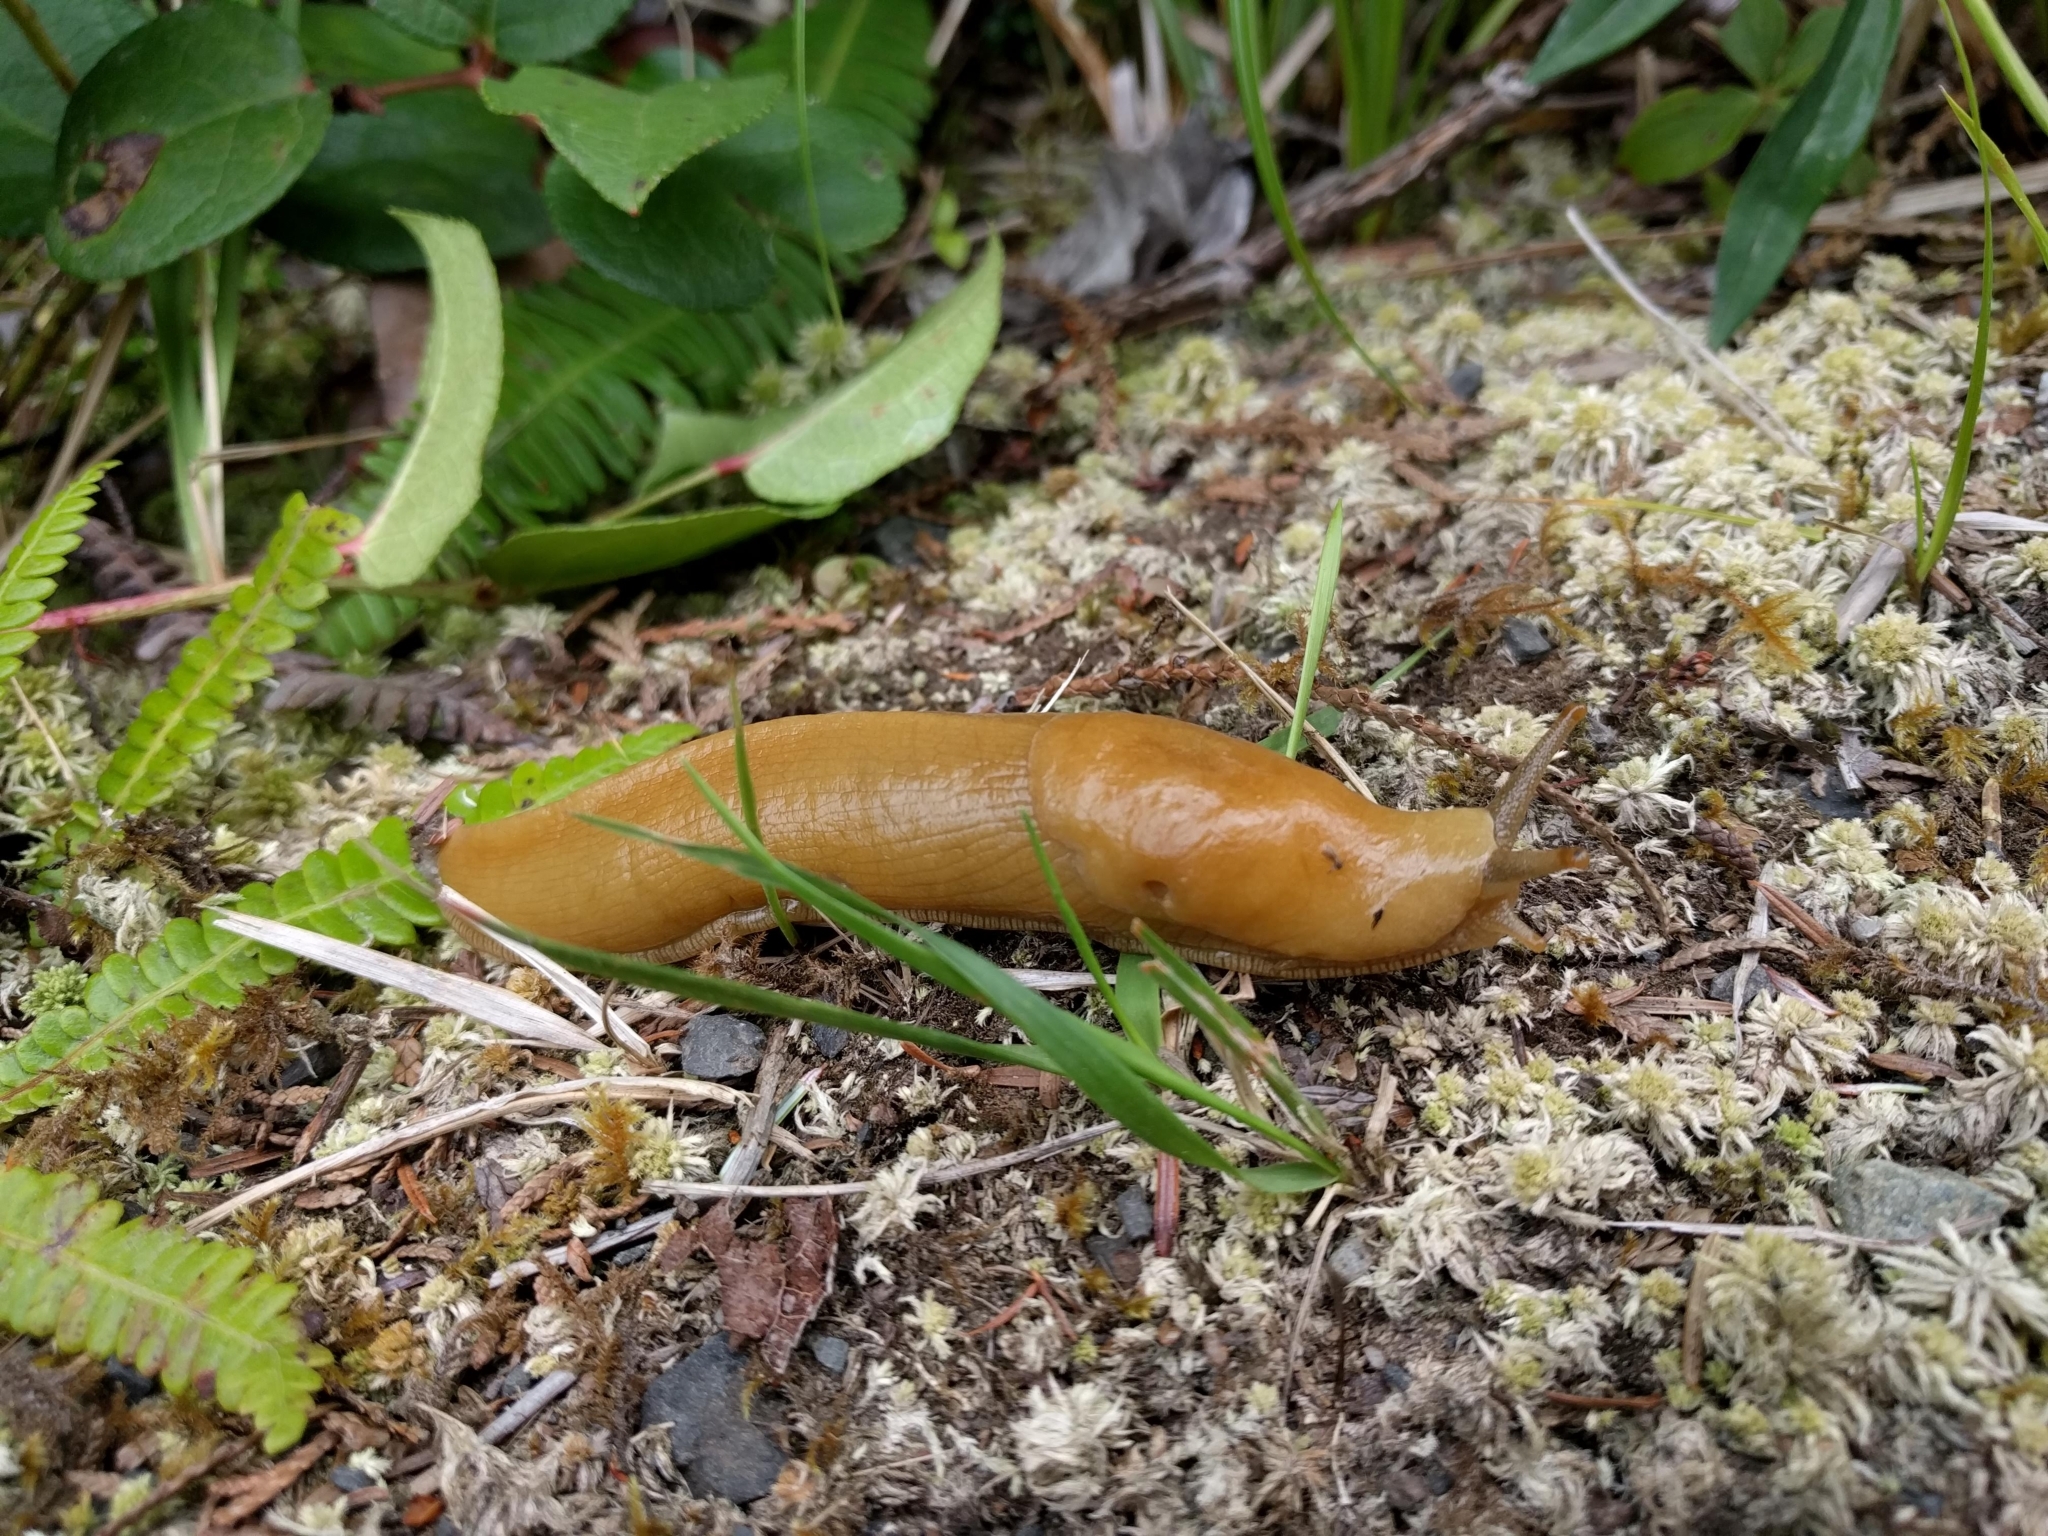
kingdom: Animalia
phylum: Mollusca
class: Gastropoda
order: Stylommatophora
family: Ariolimacidae
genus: Ariolimax
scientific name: Ariolimax columbianus
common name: Pacific banana slug
